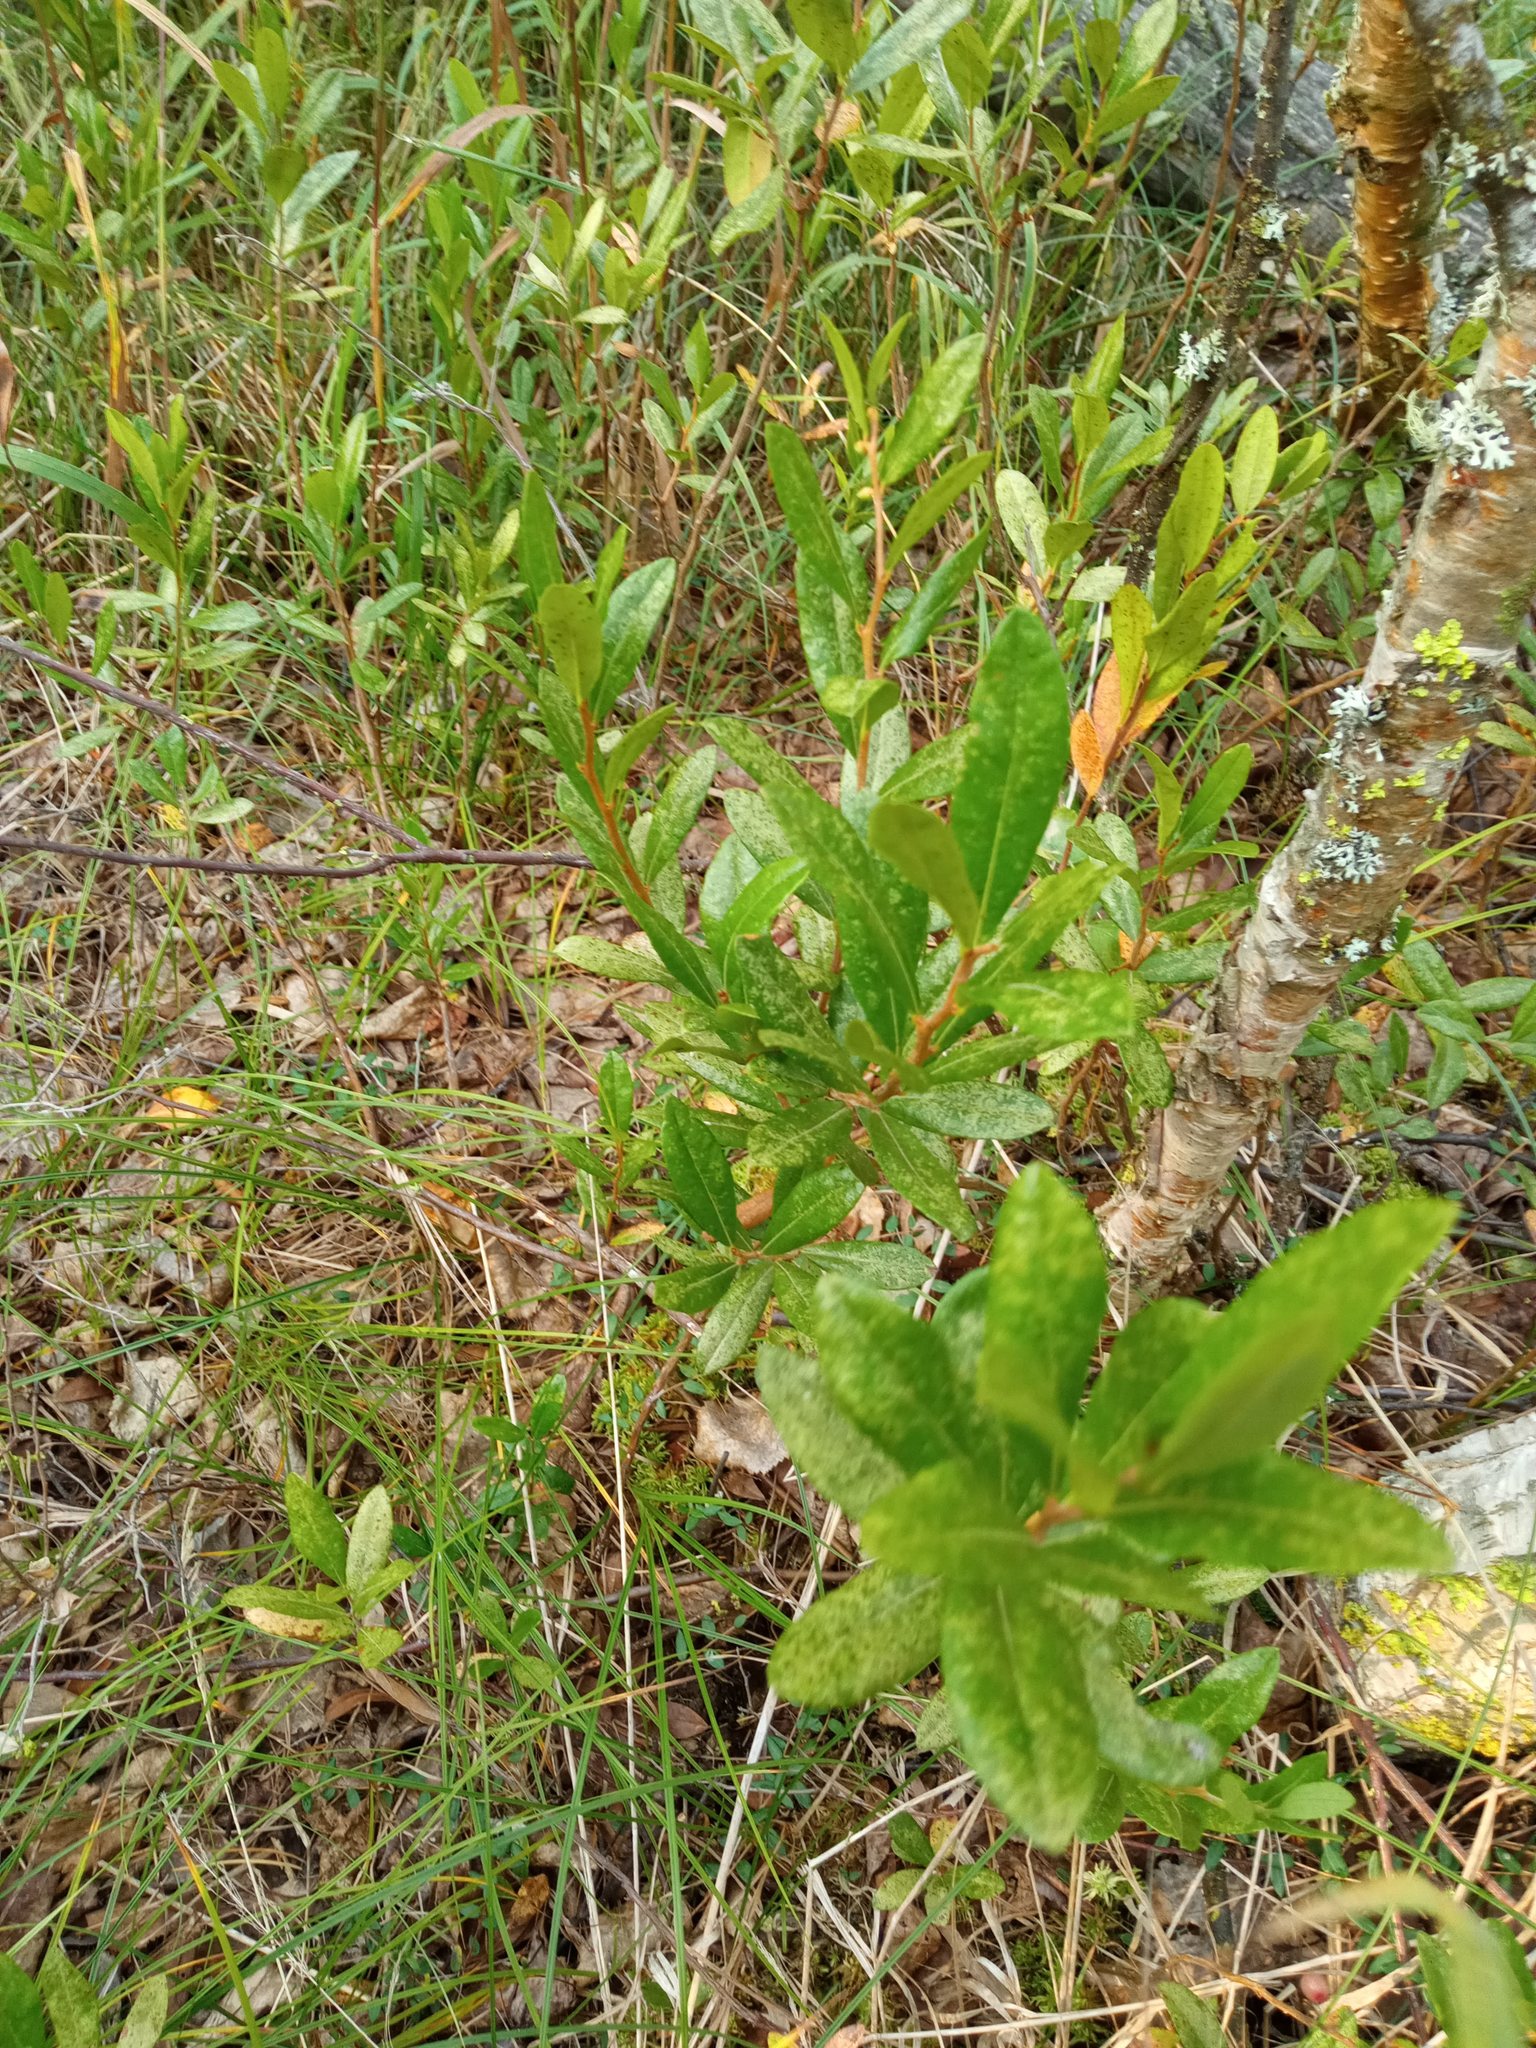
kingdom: Plantae
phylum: Tracheophyta
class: Magnoliopsida
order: Ericales
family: Ericaceae
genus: Chamaedaphne
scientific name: Chamaedaphne calyculata
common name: Leatherleaf
